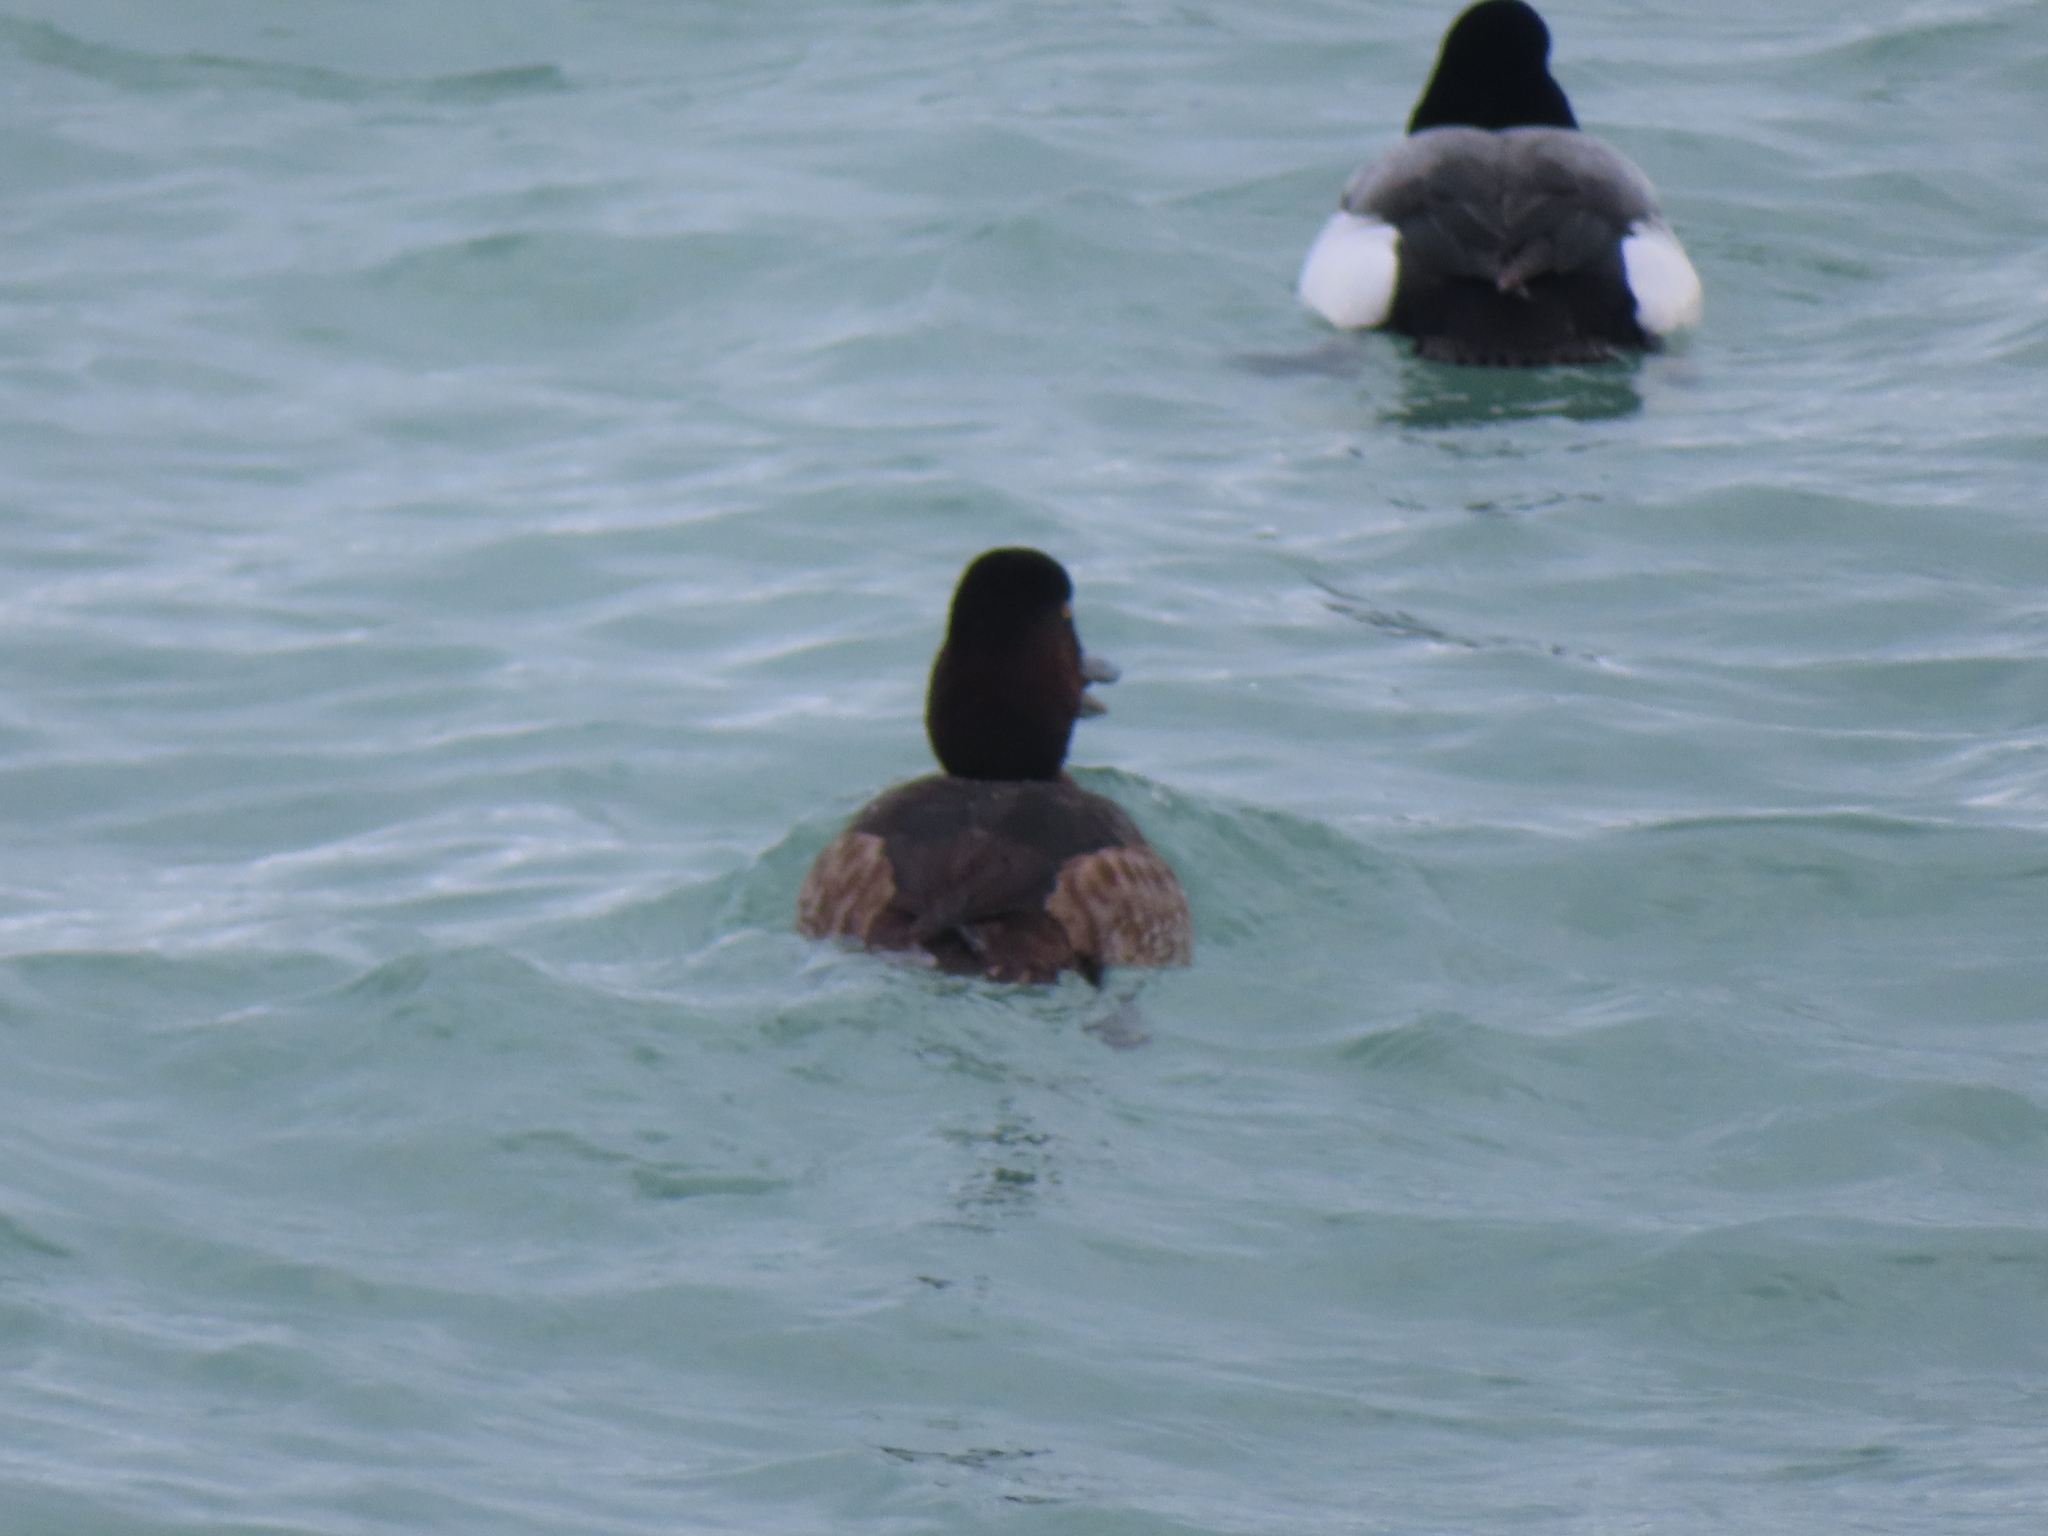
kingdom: Animalia
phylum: Chordata
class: Aves
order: Anseriformes
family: Anatidae
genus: Aythya
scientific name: Aythya marila
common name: Greater scaup
